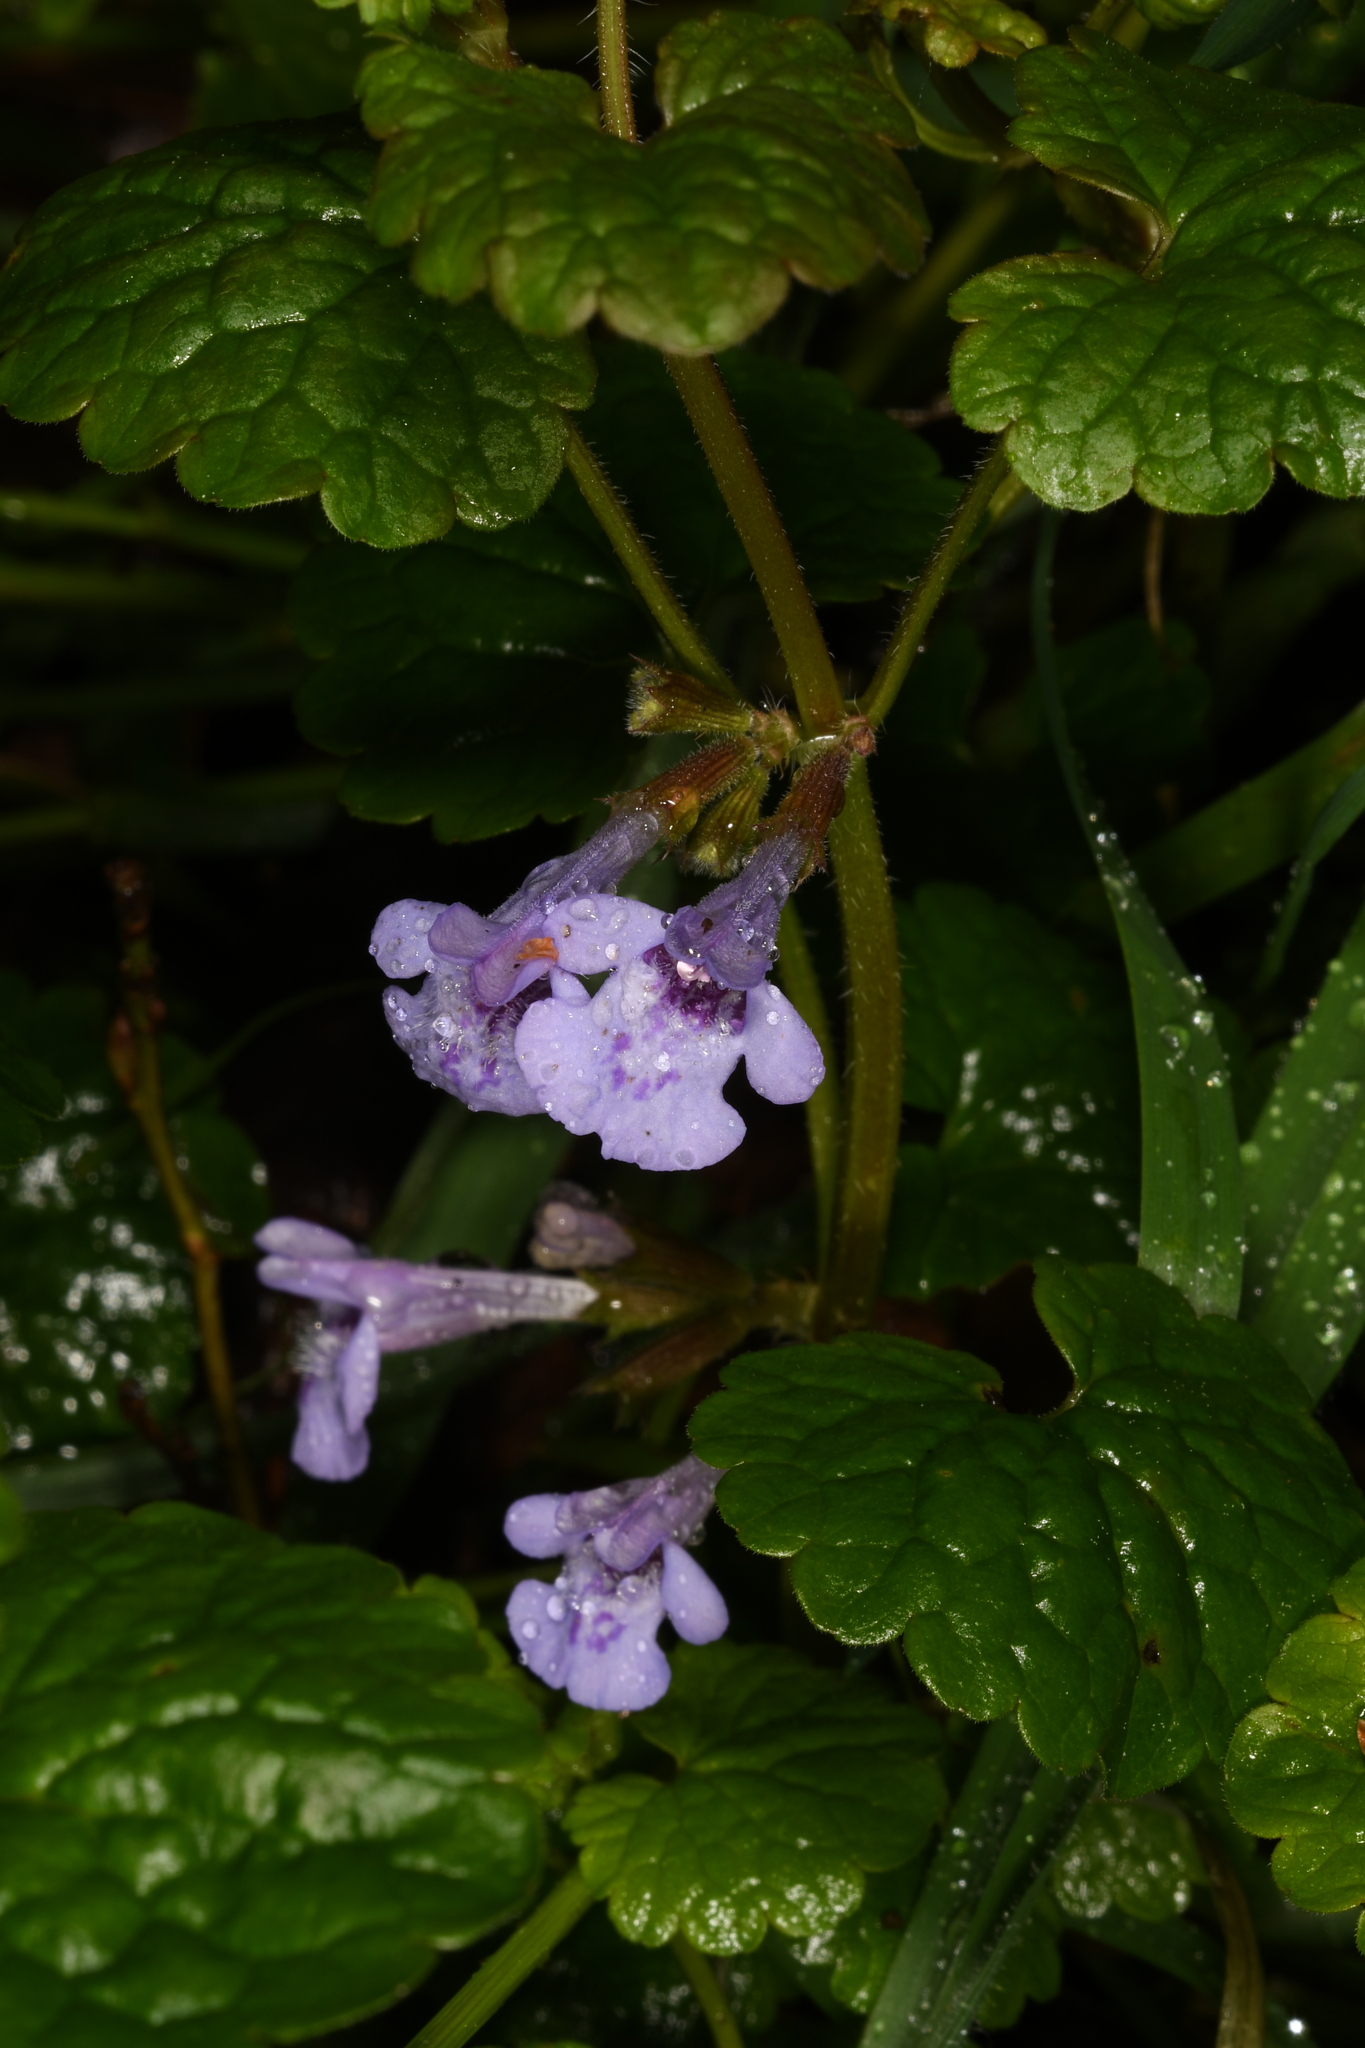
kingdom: Plantae
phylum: Tracheophyta
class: Magnoliopsida
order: Lamiales
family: Lamiaceae
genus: Glechoma
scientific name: Glechoma hederacea
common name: Ground ivy
